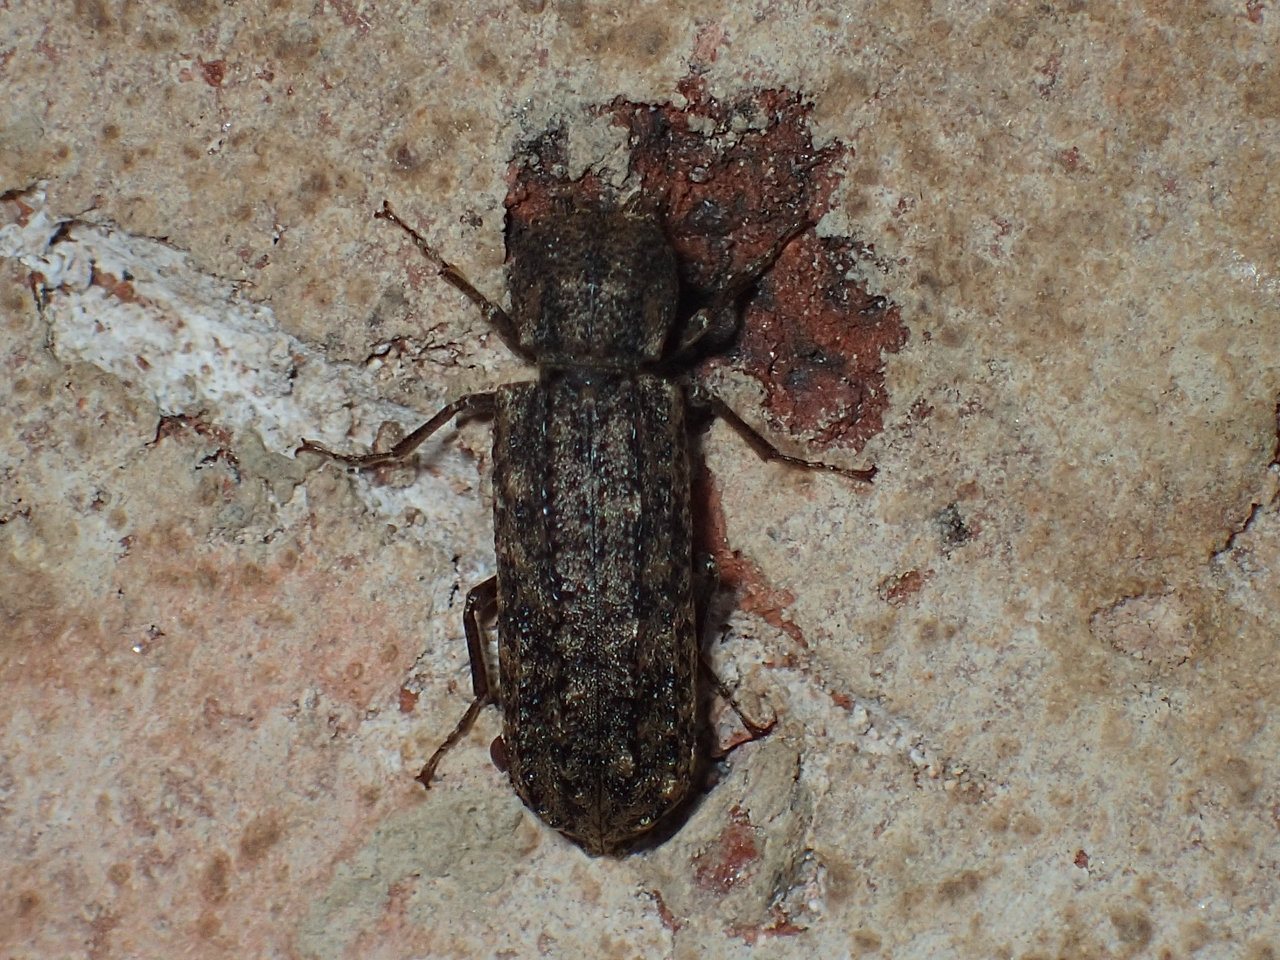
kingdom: Animalia
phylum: Arthropoda
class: Insecta
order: Coleoptera
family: Bostrichidae
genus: Lichenophanes
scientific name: Lichenophanes bicornis
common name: Two-horned powder-post beetle
